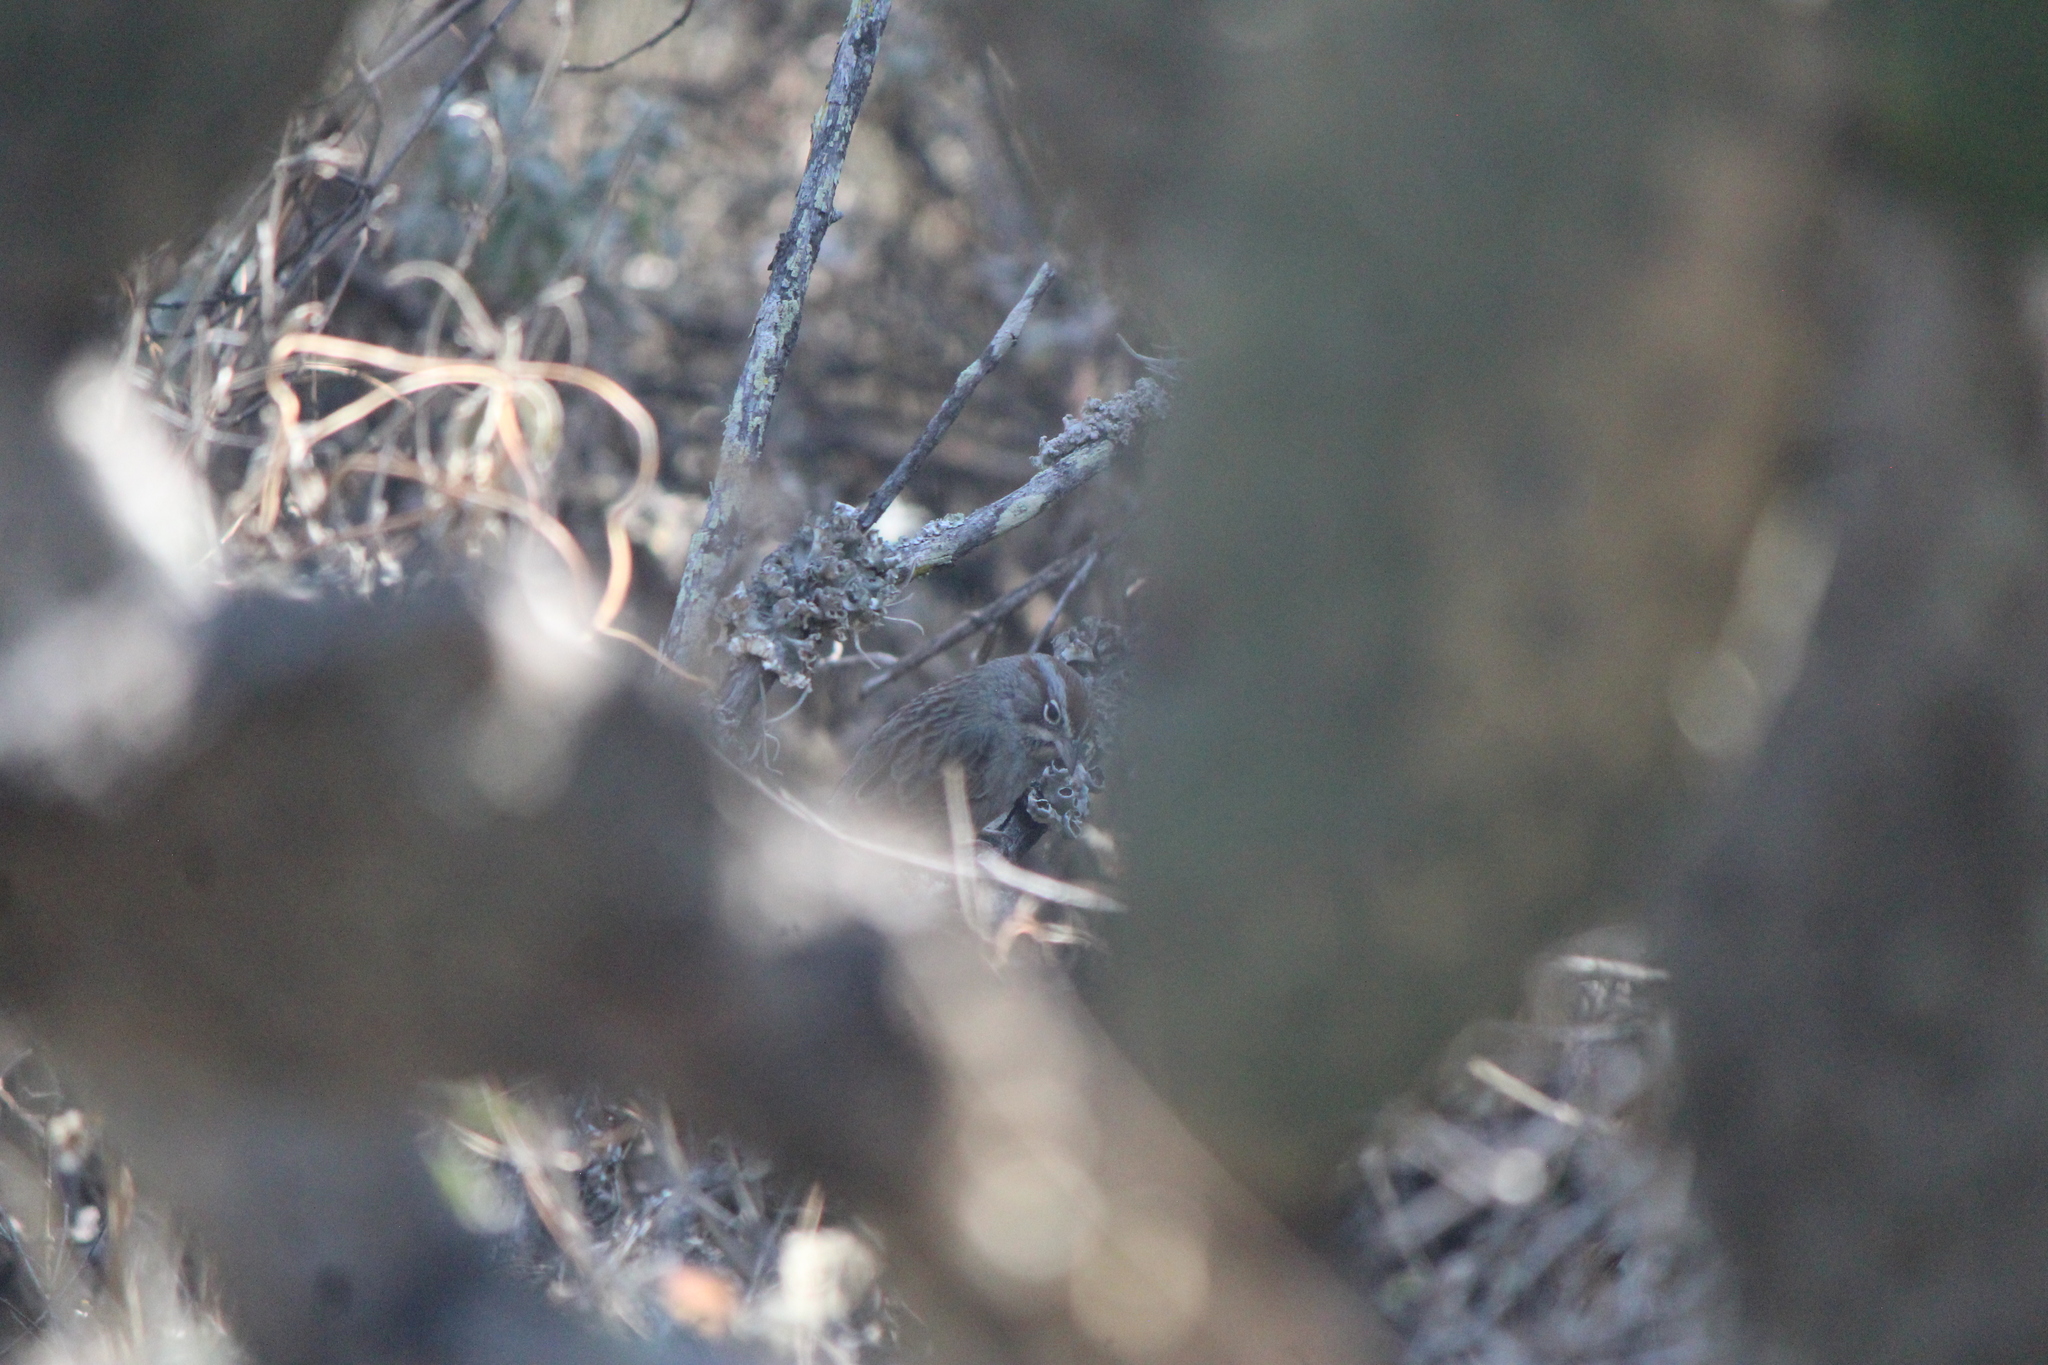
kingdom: Animalia
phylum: Chordata
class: Aves
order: Passeriformes
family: Passerellidae
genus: Aimophila
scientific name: Aimophila ruficeps
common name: Rufous-crowned sparrow
